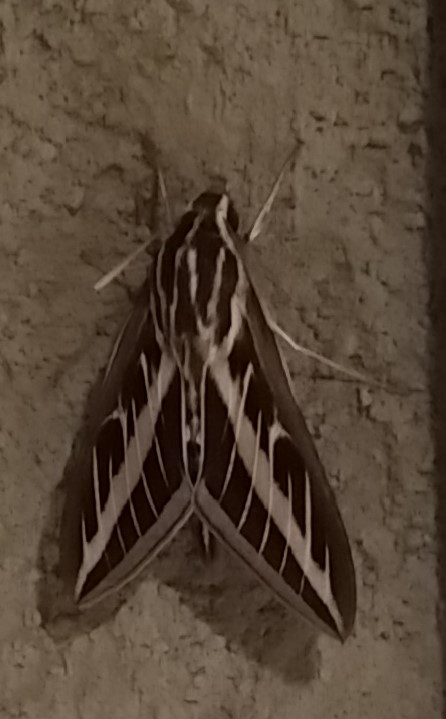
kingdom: Animalia
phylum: Arthropoda
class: Insecta
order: Lepidoptera
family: Sphingidae
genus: Hyles
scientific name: Hyles lineata
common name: White-lined sphinx
